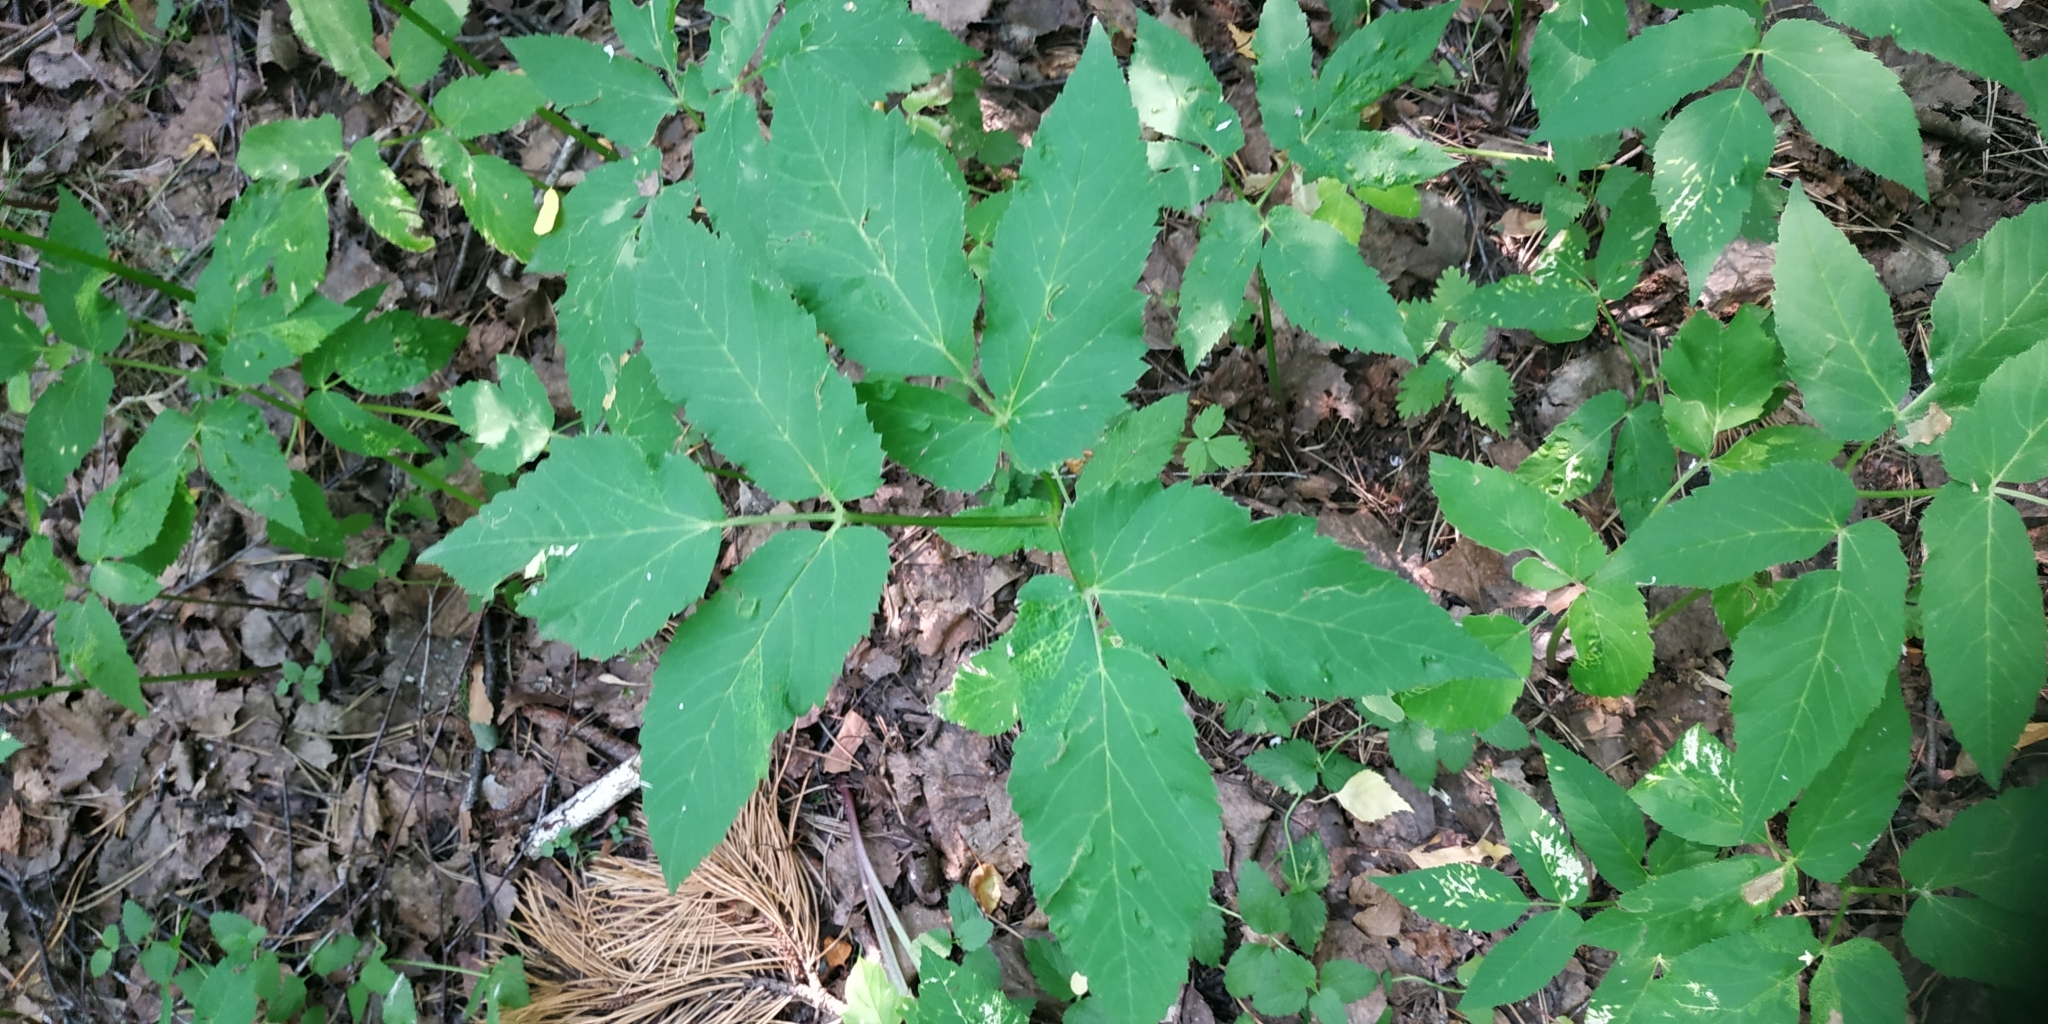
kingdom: Plantae
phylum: Tracheophyta
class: Magnoliopsida
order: Apiales
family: Apiaceae
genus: Aegopodium
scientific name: Aegopodium podagraria
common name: Ground-elder
